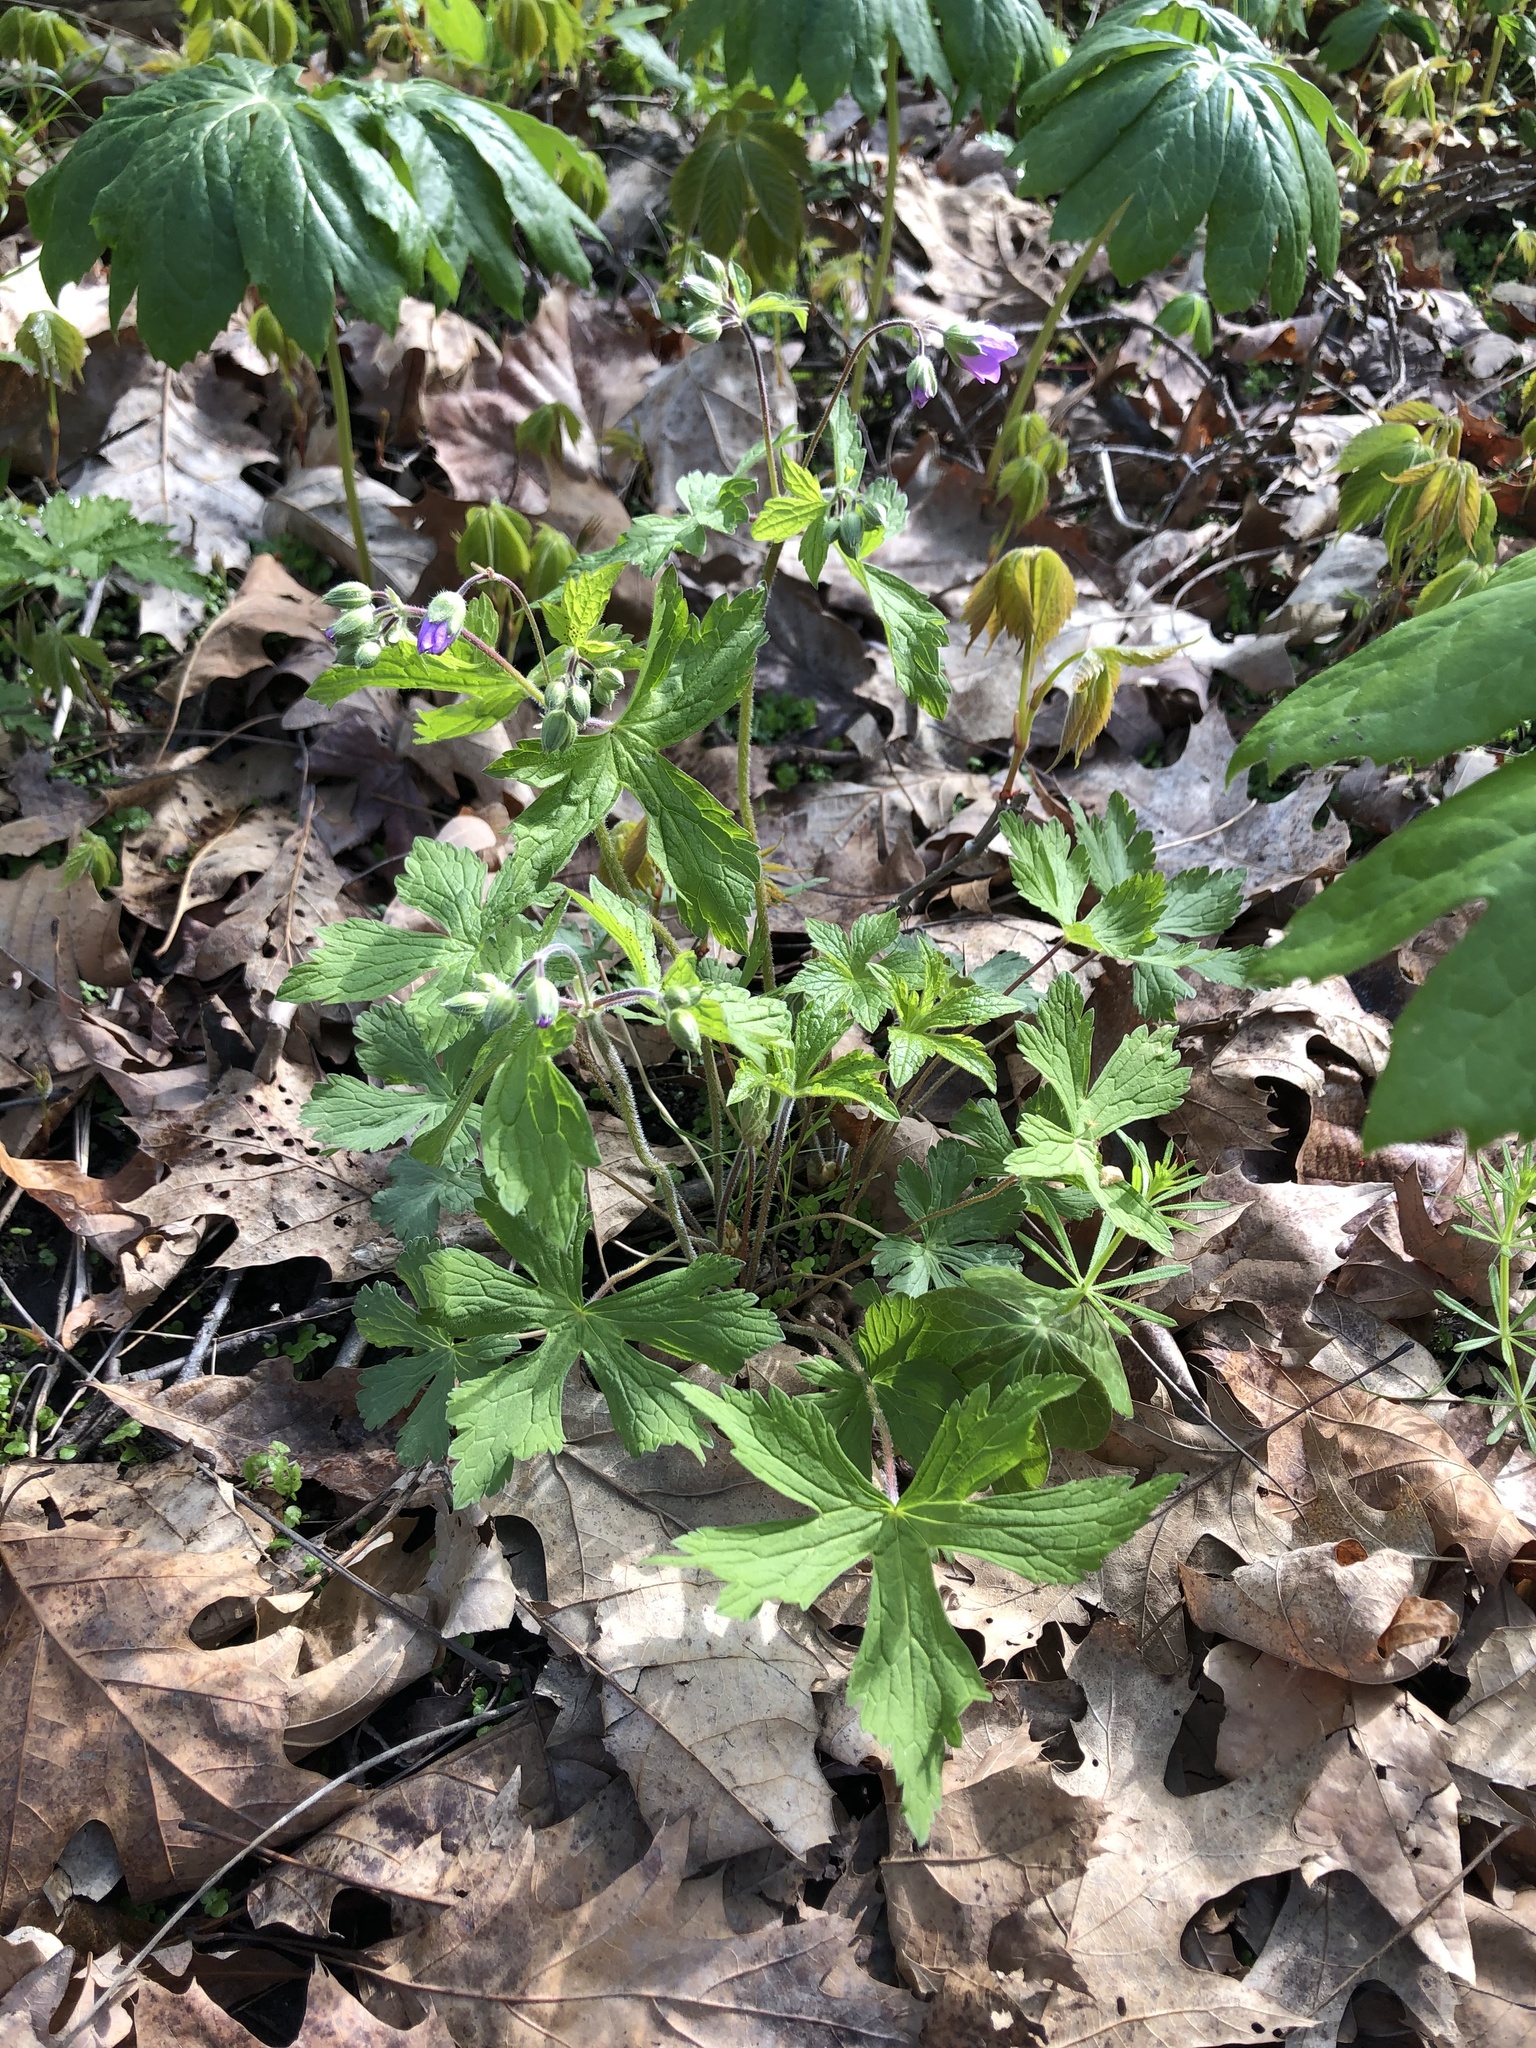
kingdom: Plantae
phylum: Tracheophyta
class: Magnoliopsida
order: Geraniales
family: Geraniaceae
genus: Geranium
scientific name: Geranium maculatum
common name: Spotted geranium
